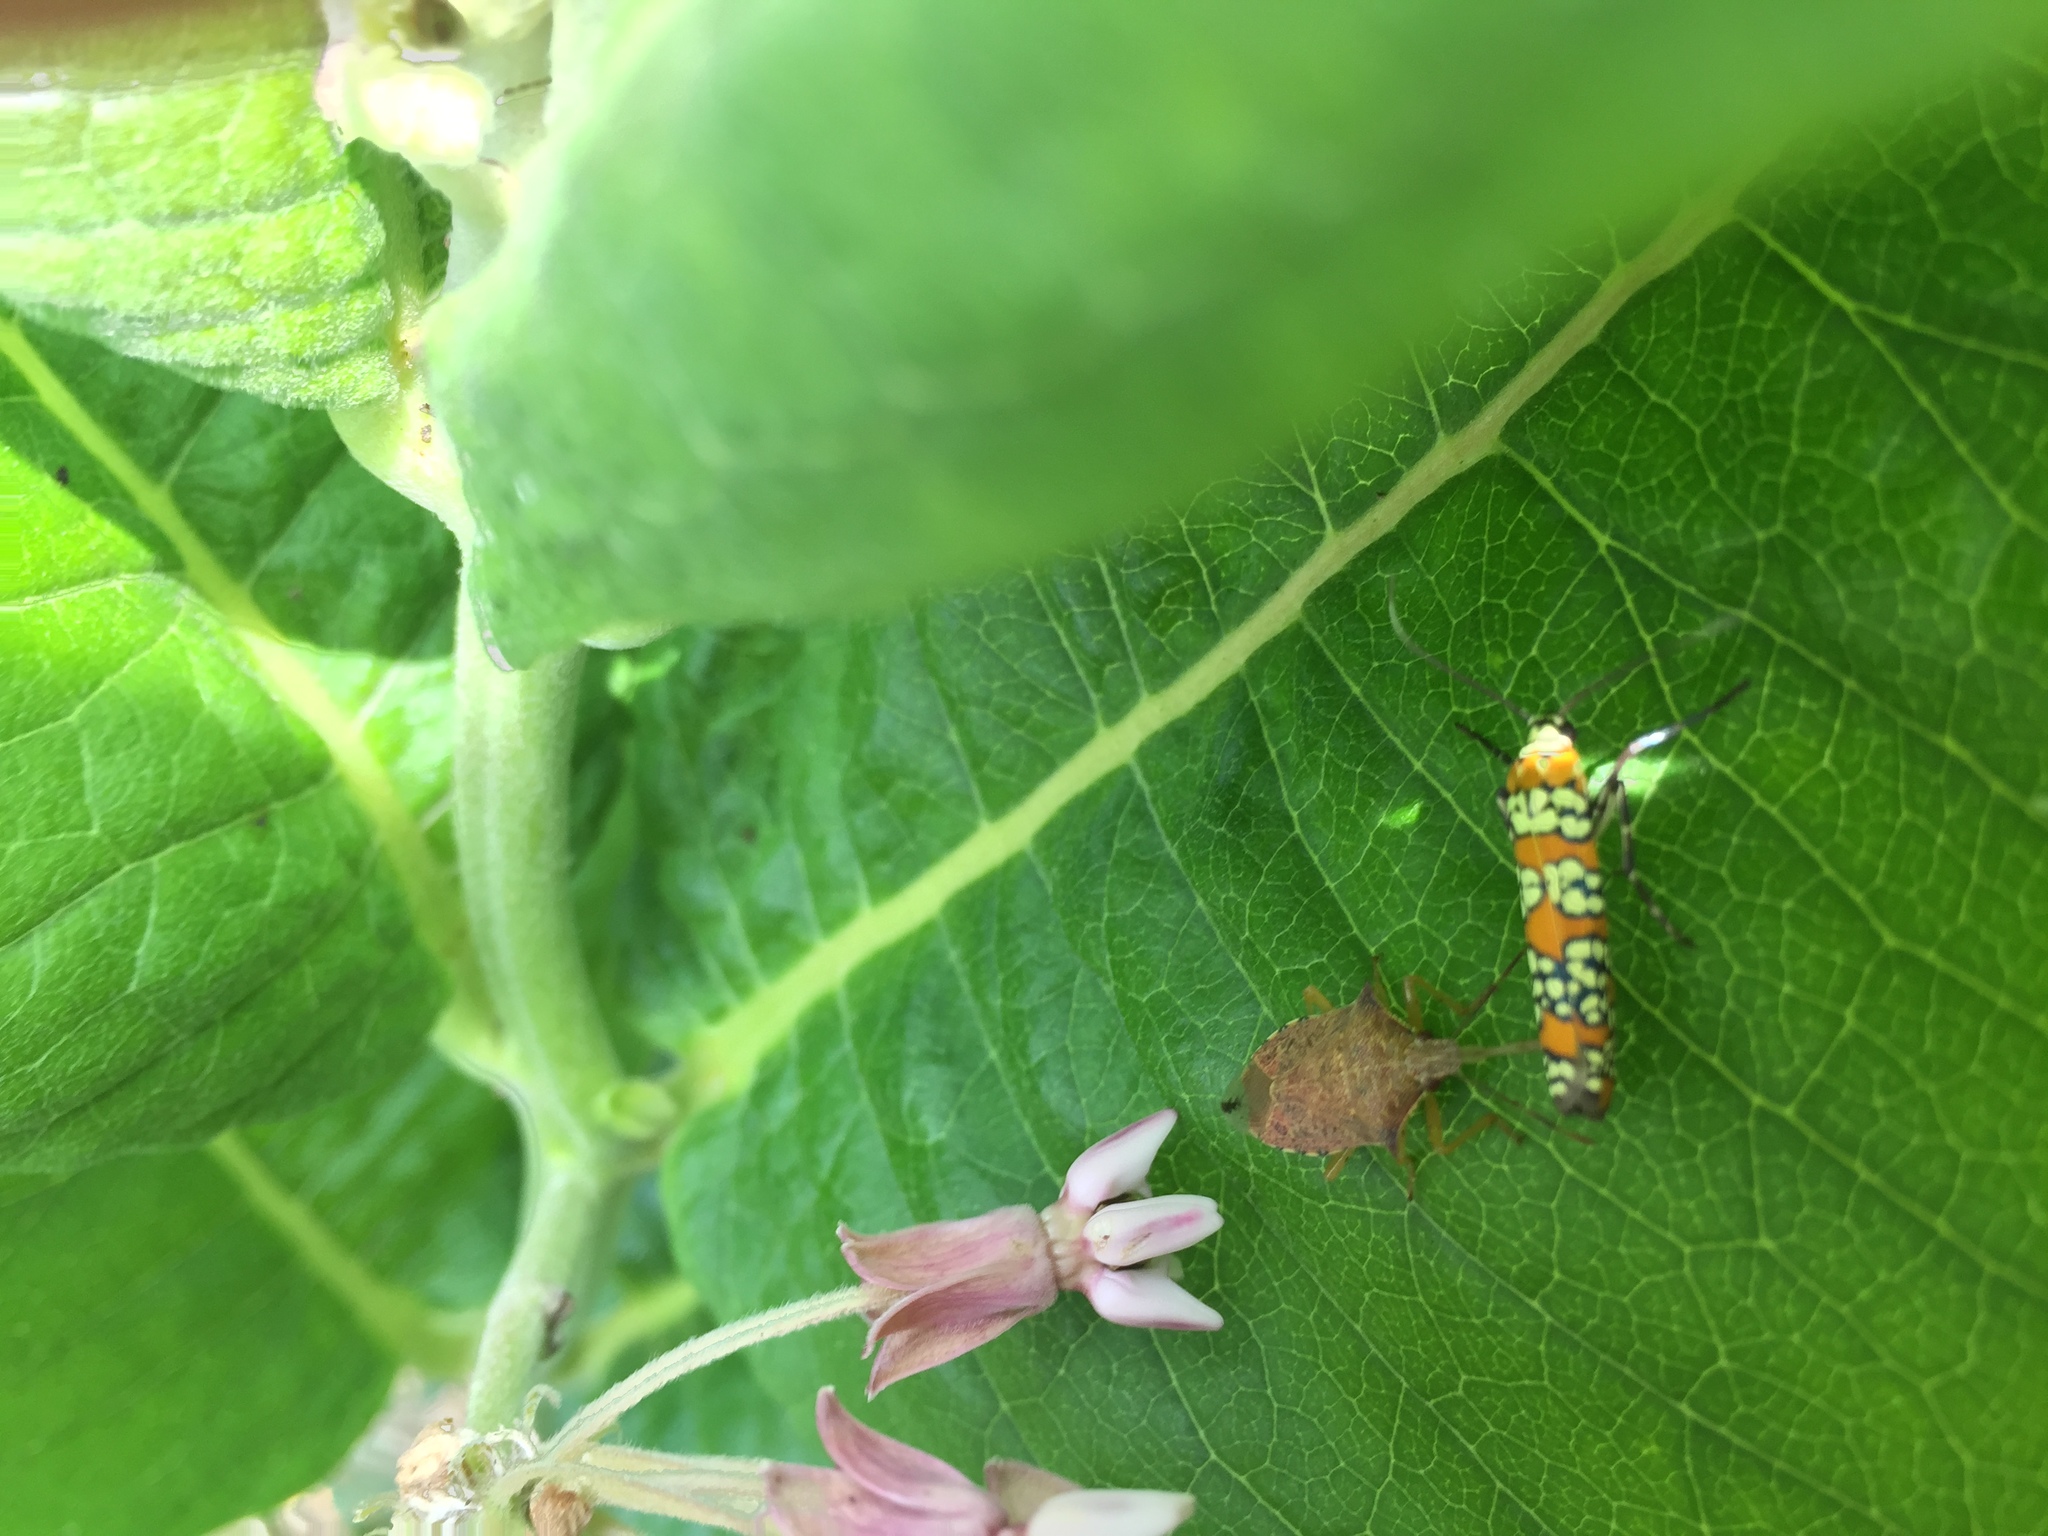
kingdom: Animalia
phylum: Arthropoda
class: Insecta
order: Lepidoptera
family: Attevidae
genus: Atteva
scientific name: Atteva punctella
